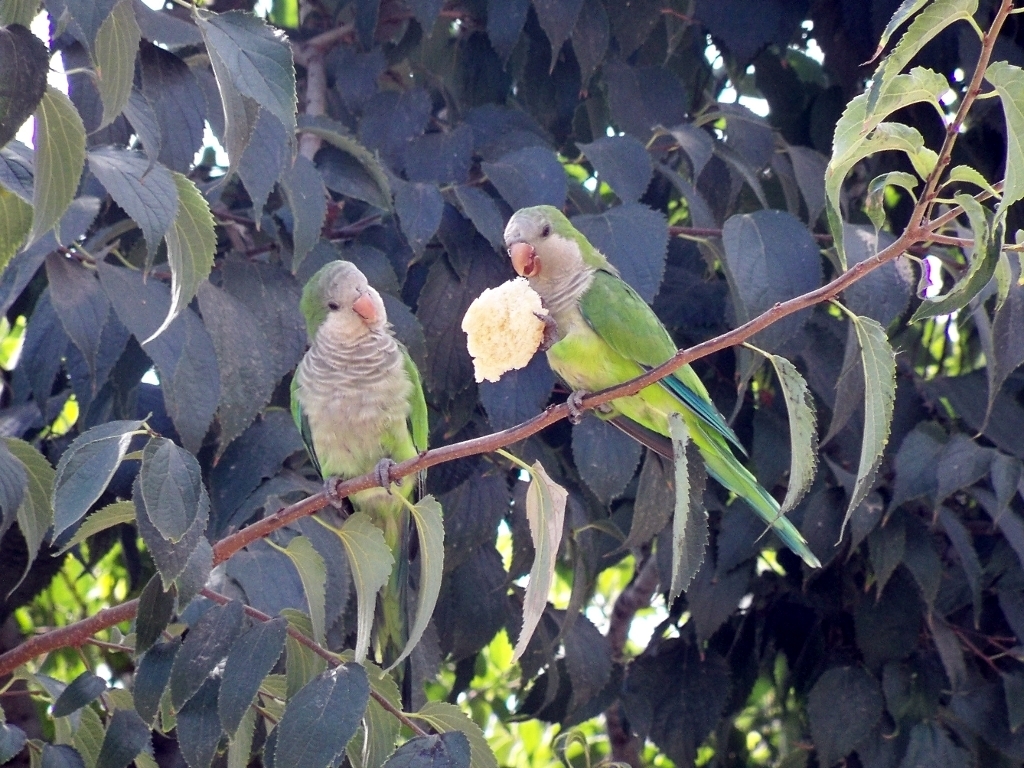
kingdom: Animalia
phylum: Chordata
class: Aves
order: Psittaciformes
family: Psittacidae
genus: Myiopsitta
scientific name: Myiopsitta monachus
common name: Monk parakeet
